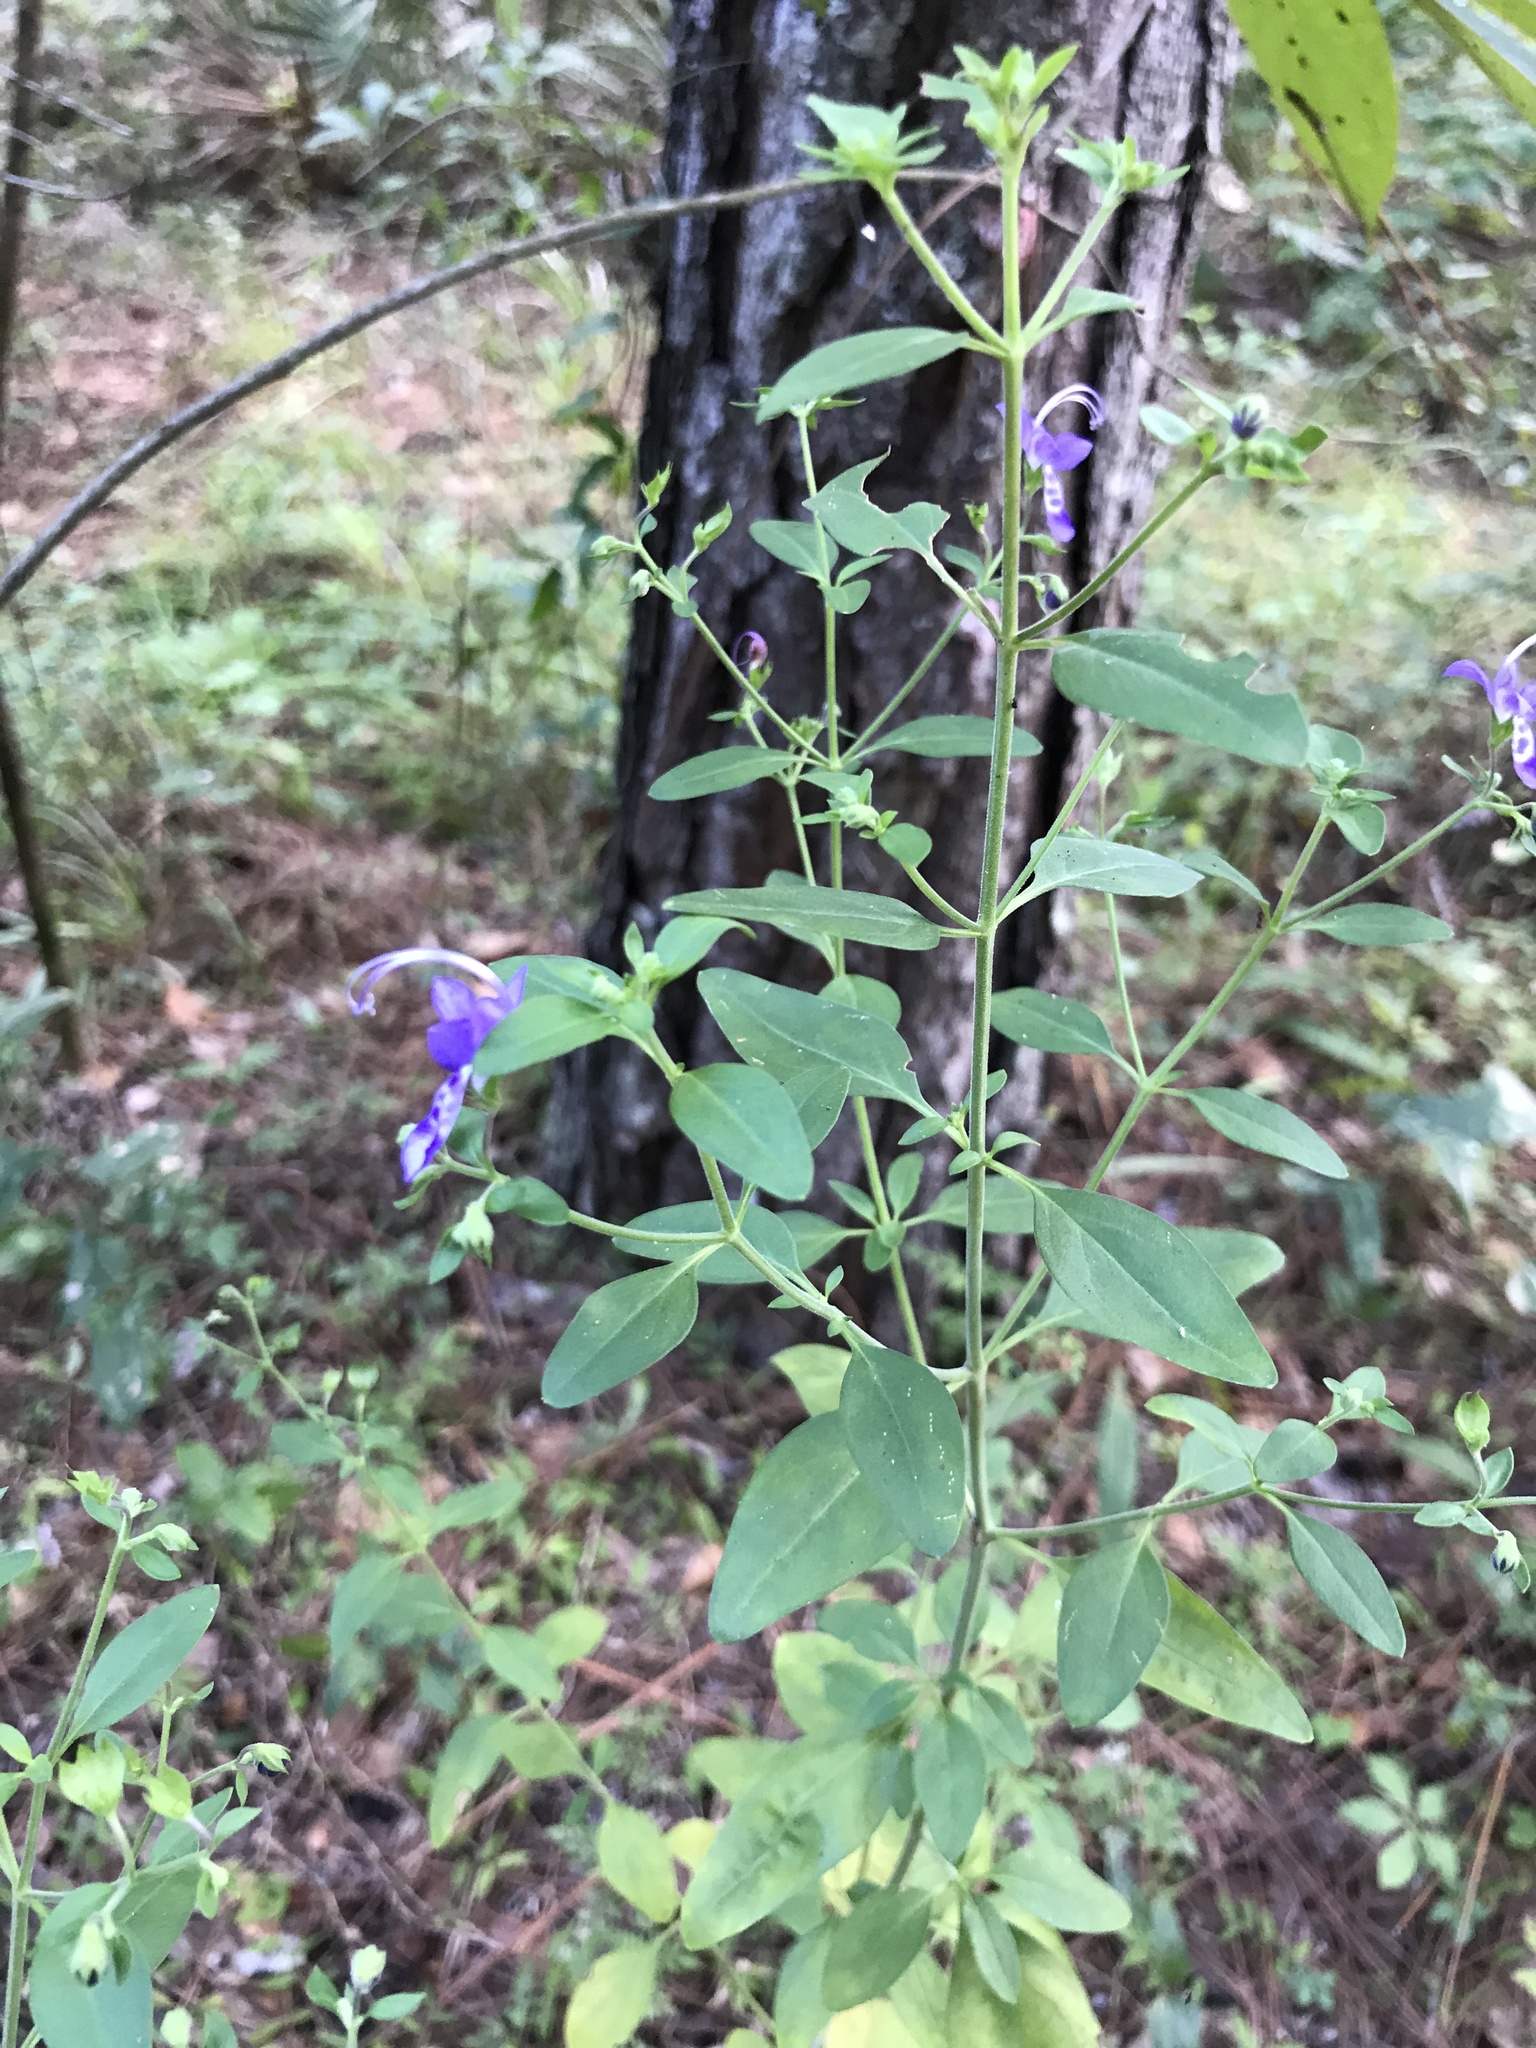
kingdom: Plantae
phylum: Tracheophyta
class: Magnoliopsida
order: Lamiales
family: Lamiaceae
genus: Trichostema
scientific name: Trichostema fruticosum
